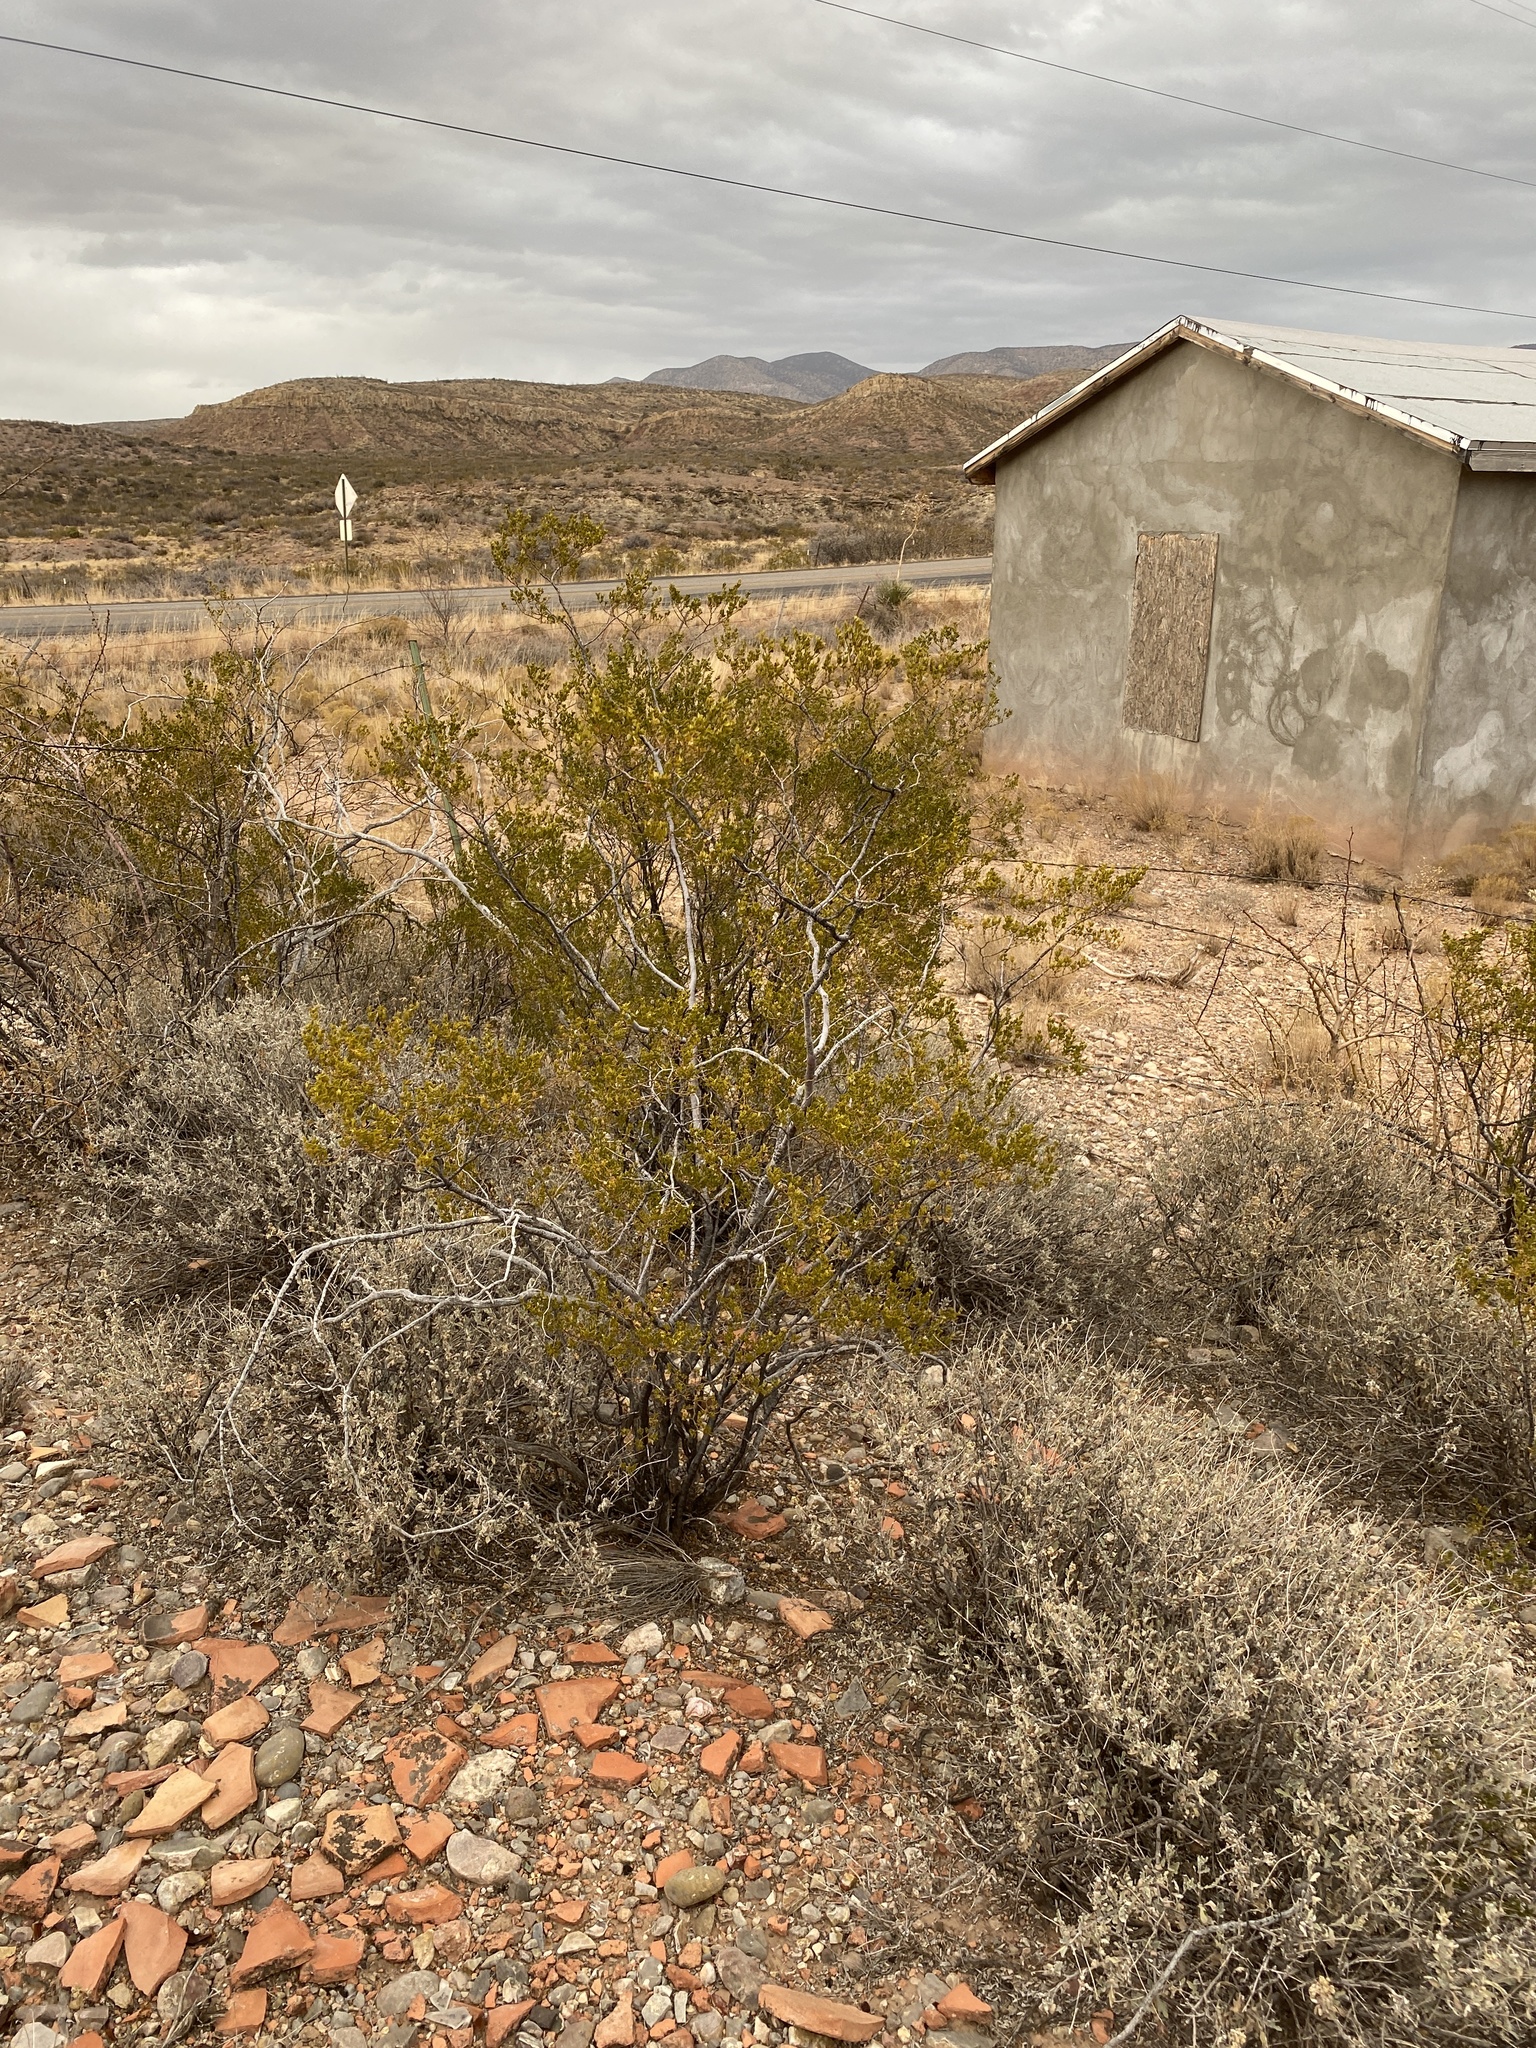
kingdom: Plantae
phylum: Tracheophyta
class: Magnoliopsida
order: Zygophyllales
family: Zygophyllaceae
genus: Larrea
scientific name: Larrea tridentata
